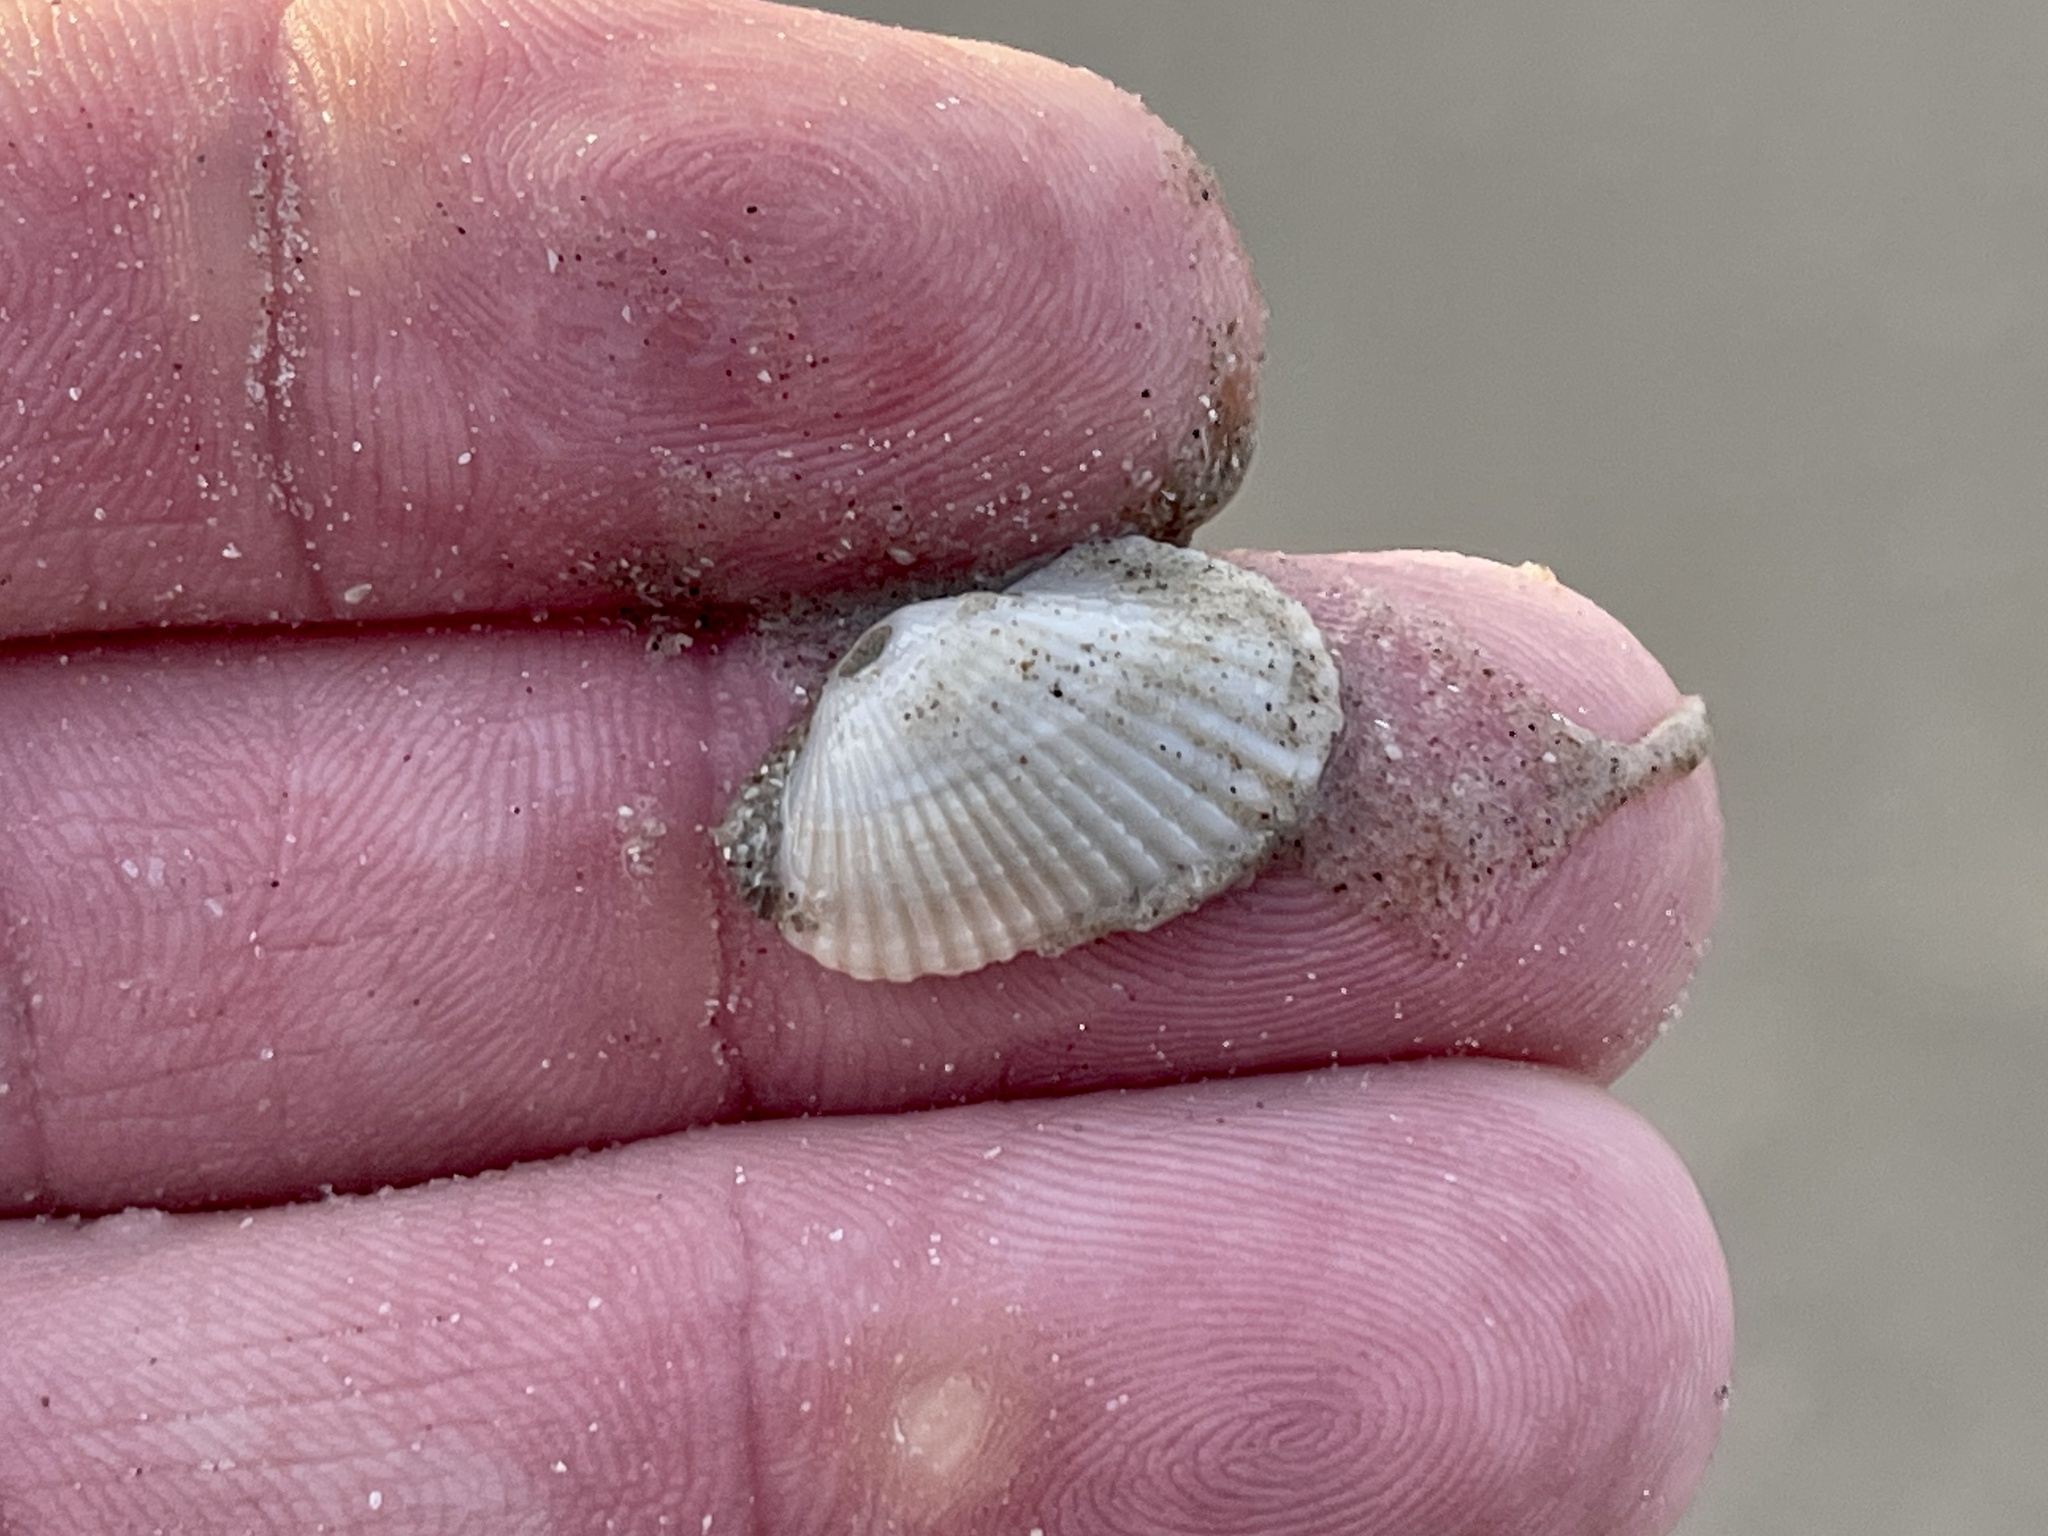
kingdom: Animalia
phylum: Mollusca
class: Bivalvia
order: Arcida
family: Arcidae
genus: Anadara
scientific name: Anadara transversa
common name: Transverse ark
